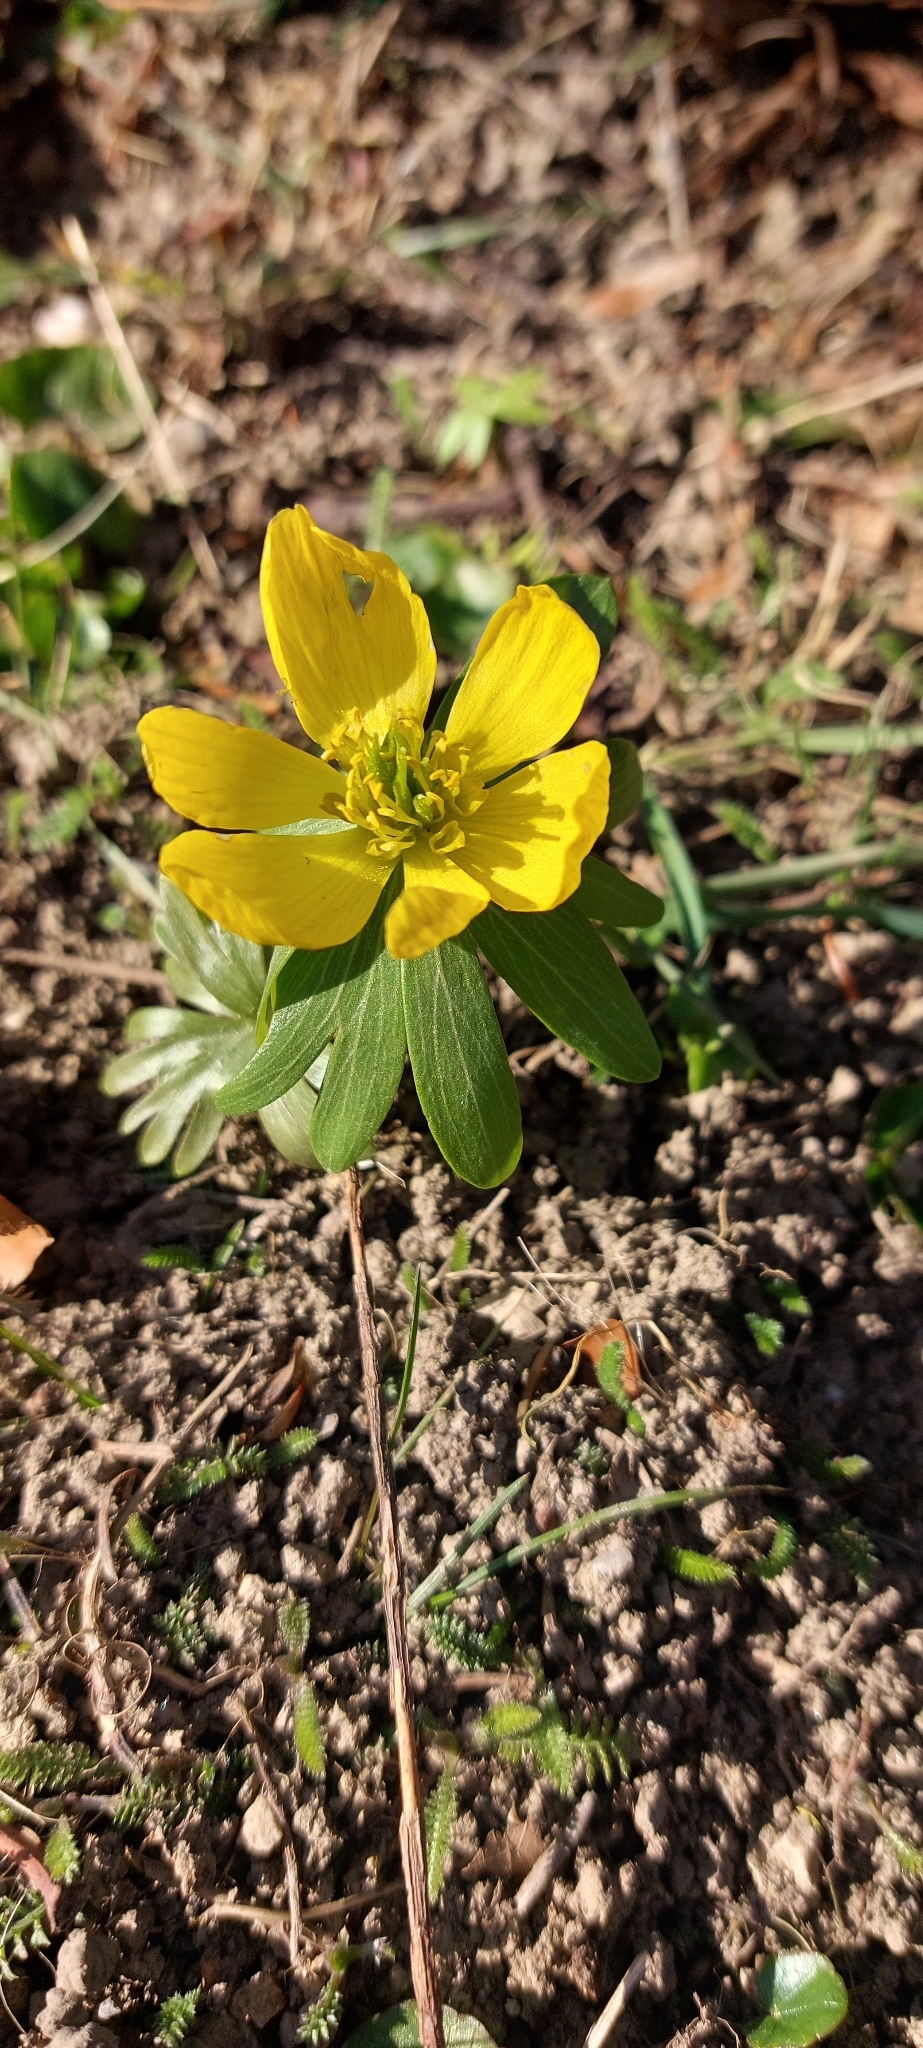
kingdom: Plantae
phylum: Tracheophyta
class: Magnoliopsida
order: Ranunculales
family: Ranunculaceae
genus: Eranthis
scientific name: Eranthis hyemalis
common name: Winter aconite
